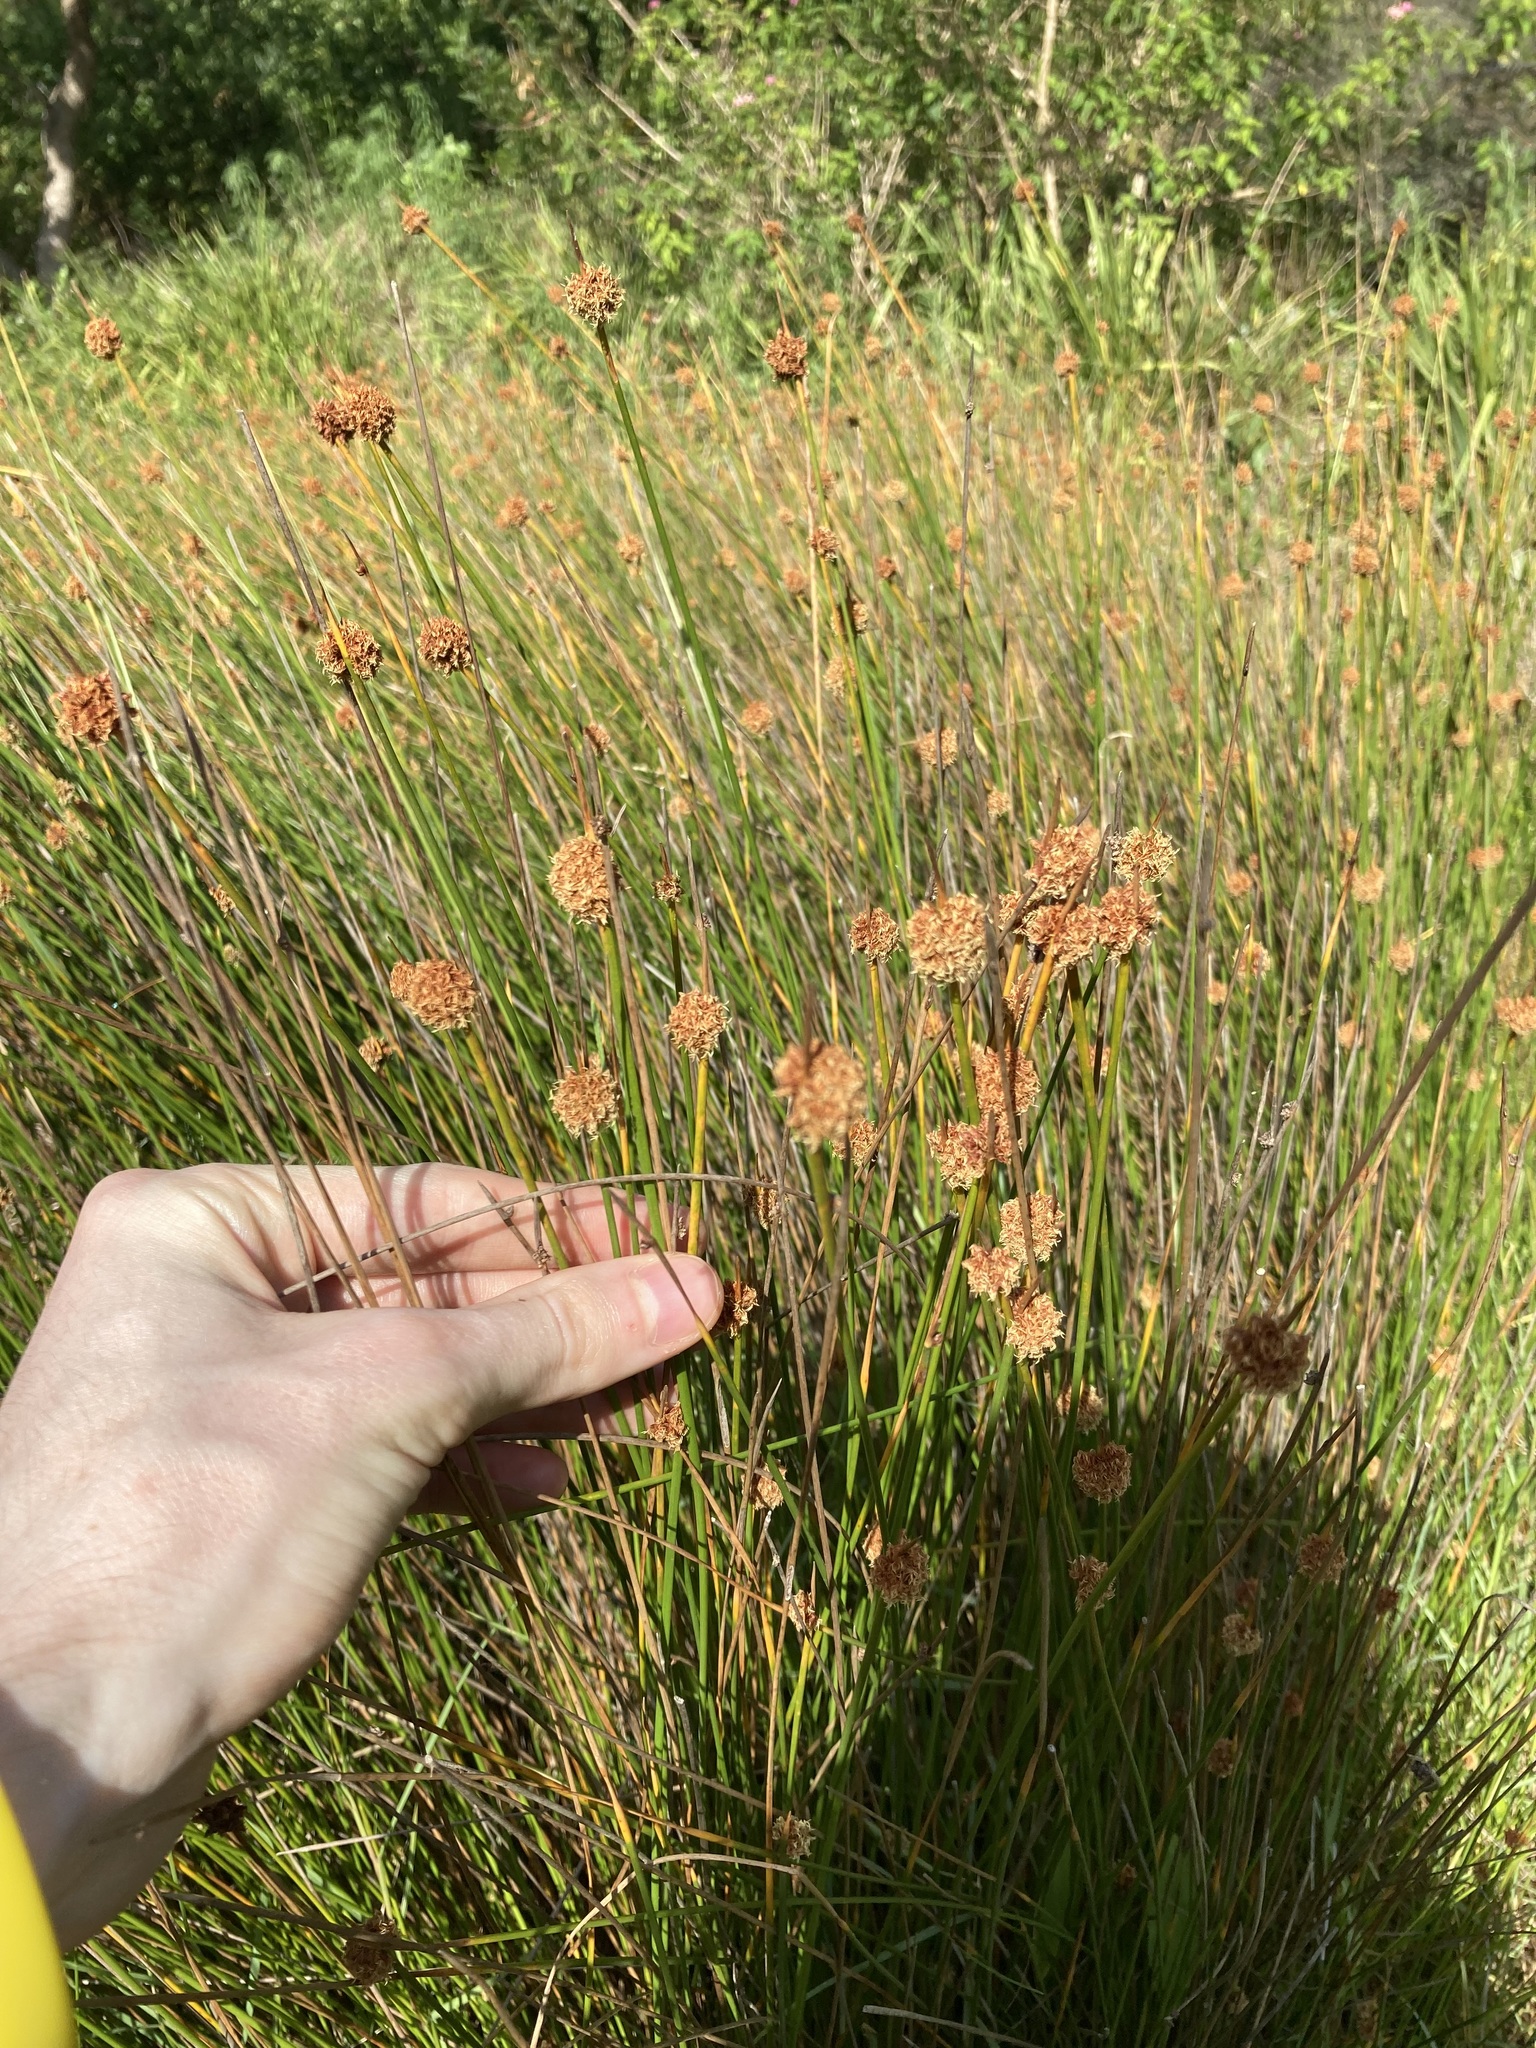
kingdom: Plantae
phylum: Tracheophyta
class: Liliopsida
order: Poales
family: Cyperaceae
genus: Ficinia
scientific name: Ficinia nodosa
